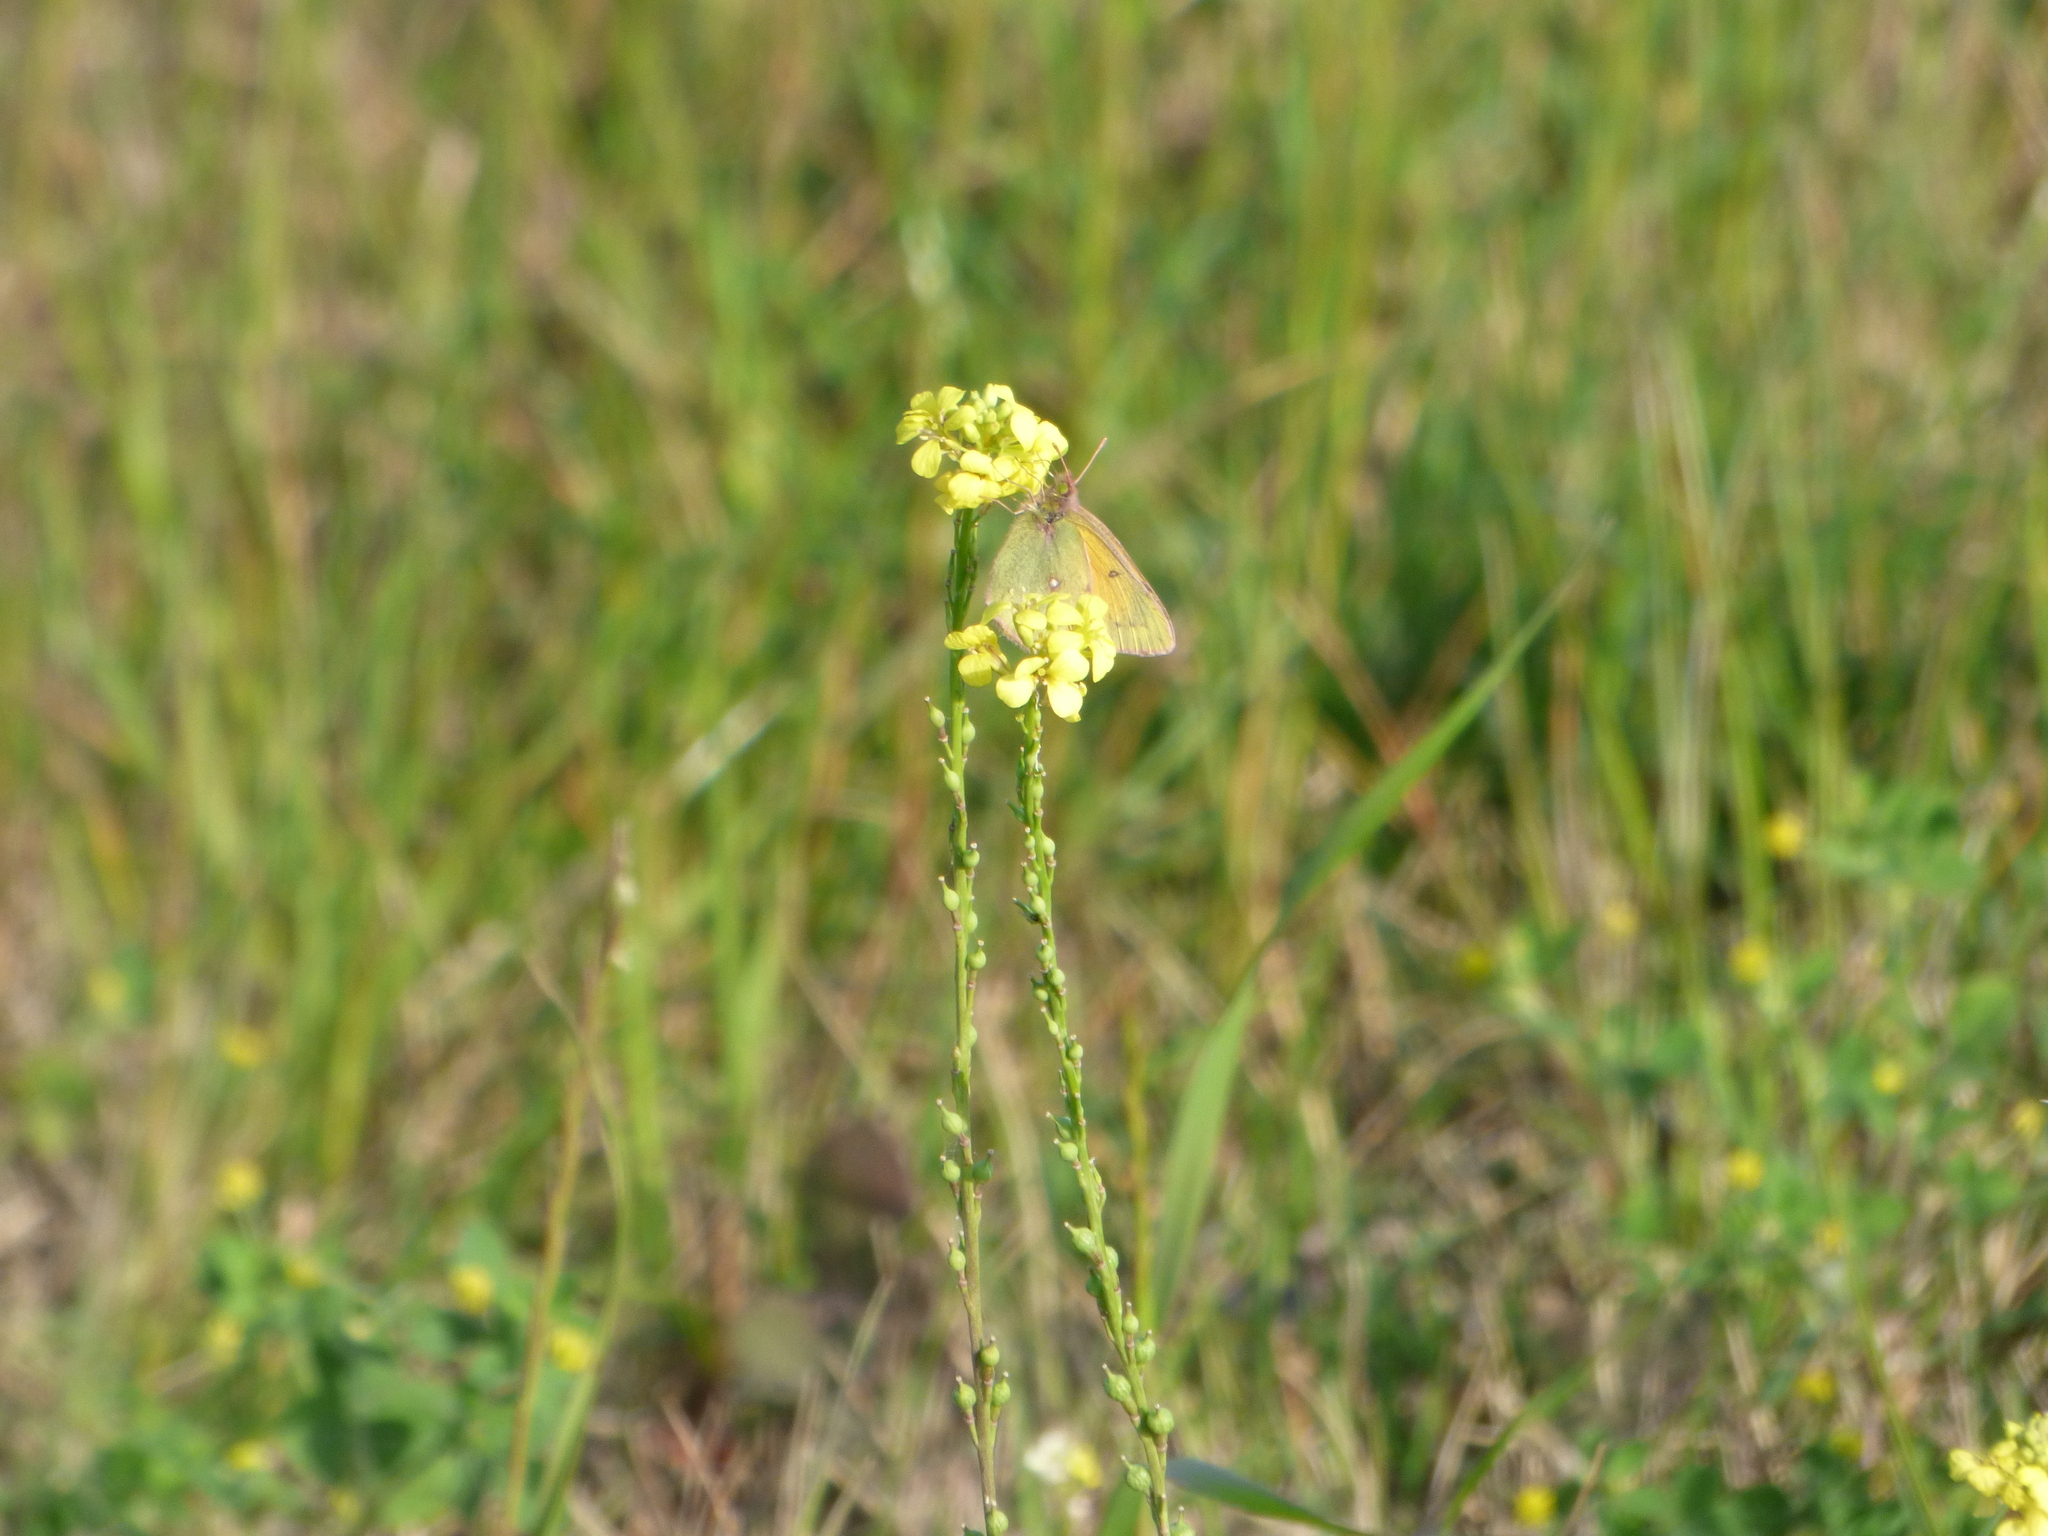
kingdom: Animalia
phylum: Arthropoda
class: Insecta
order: Lepidoptera
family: Pieridae
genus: Colias
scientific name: Colias lesbia
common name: Lesbia clouded yellow
